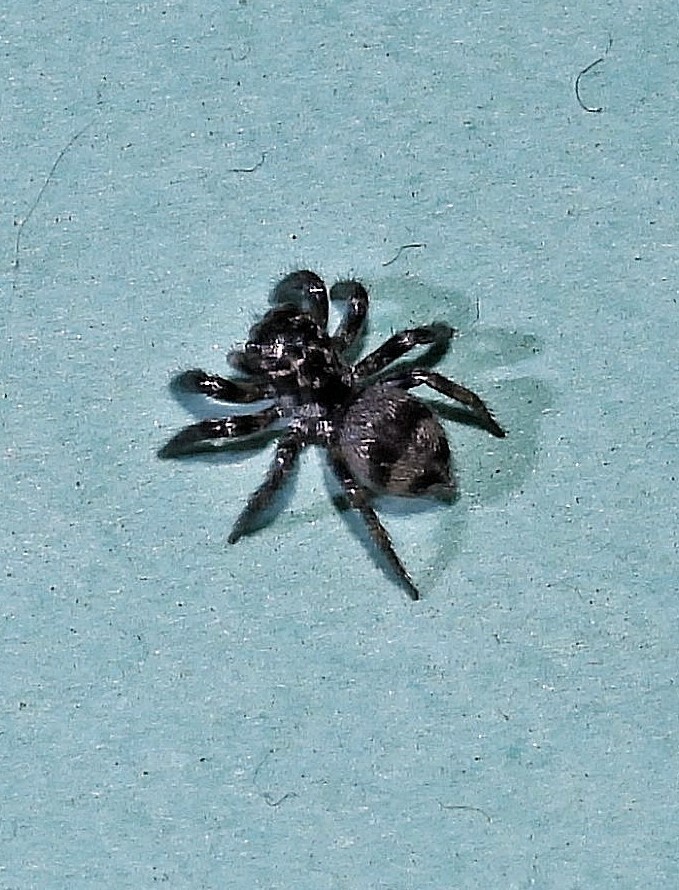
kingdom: Animalia
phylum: Arthropoda
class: Arachnida
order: Araneae
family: Salticidae
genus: Corythalia
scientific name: Corythalia conferta
